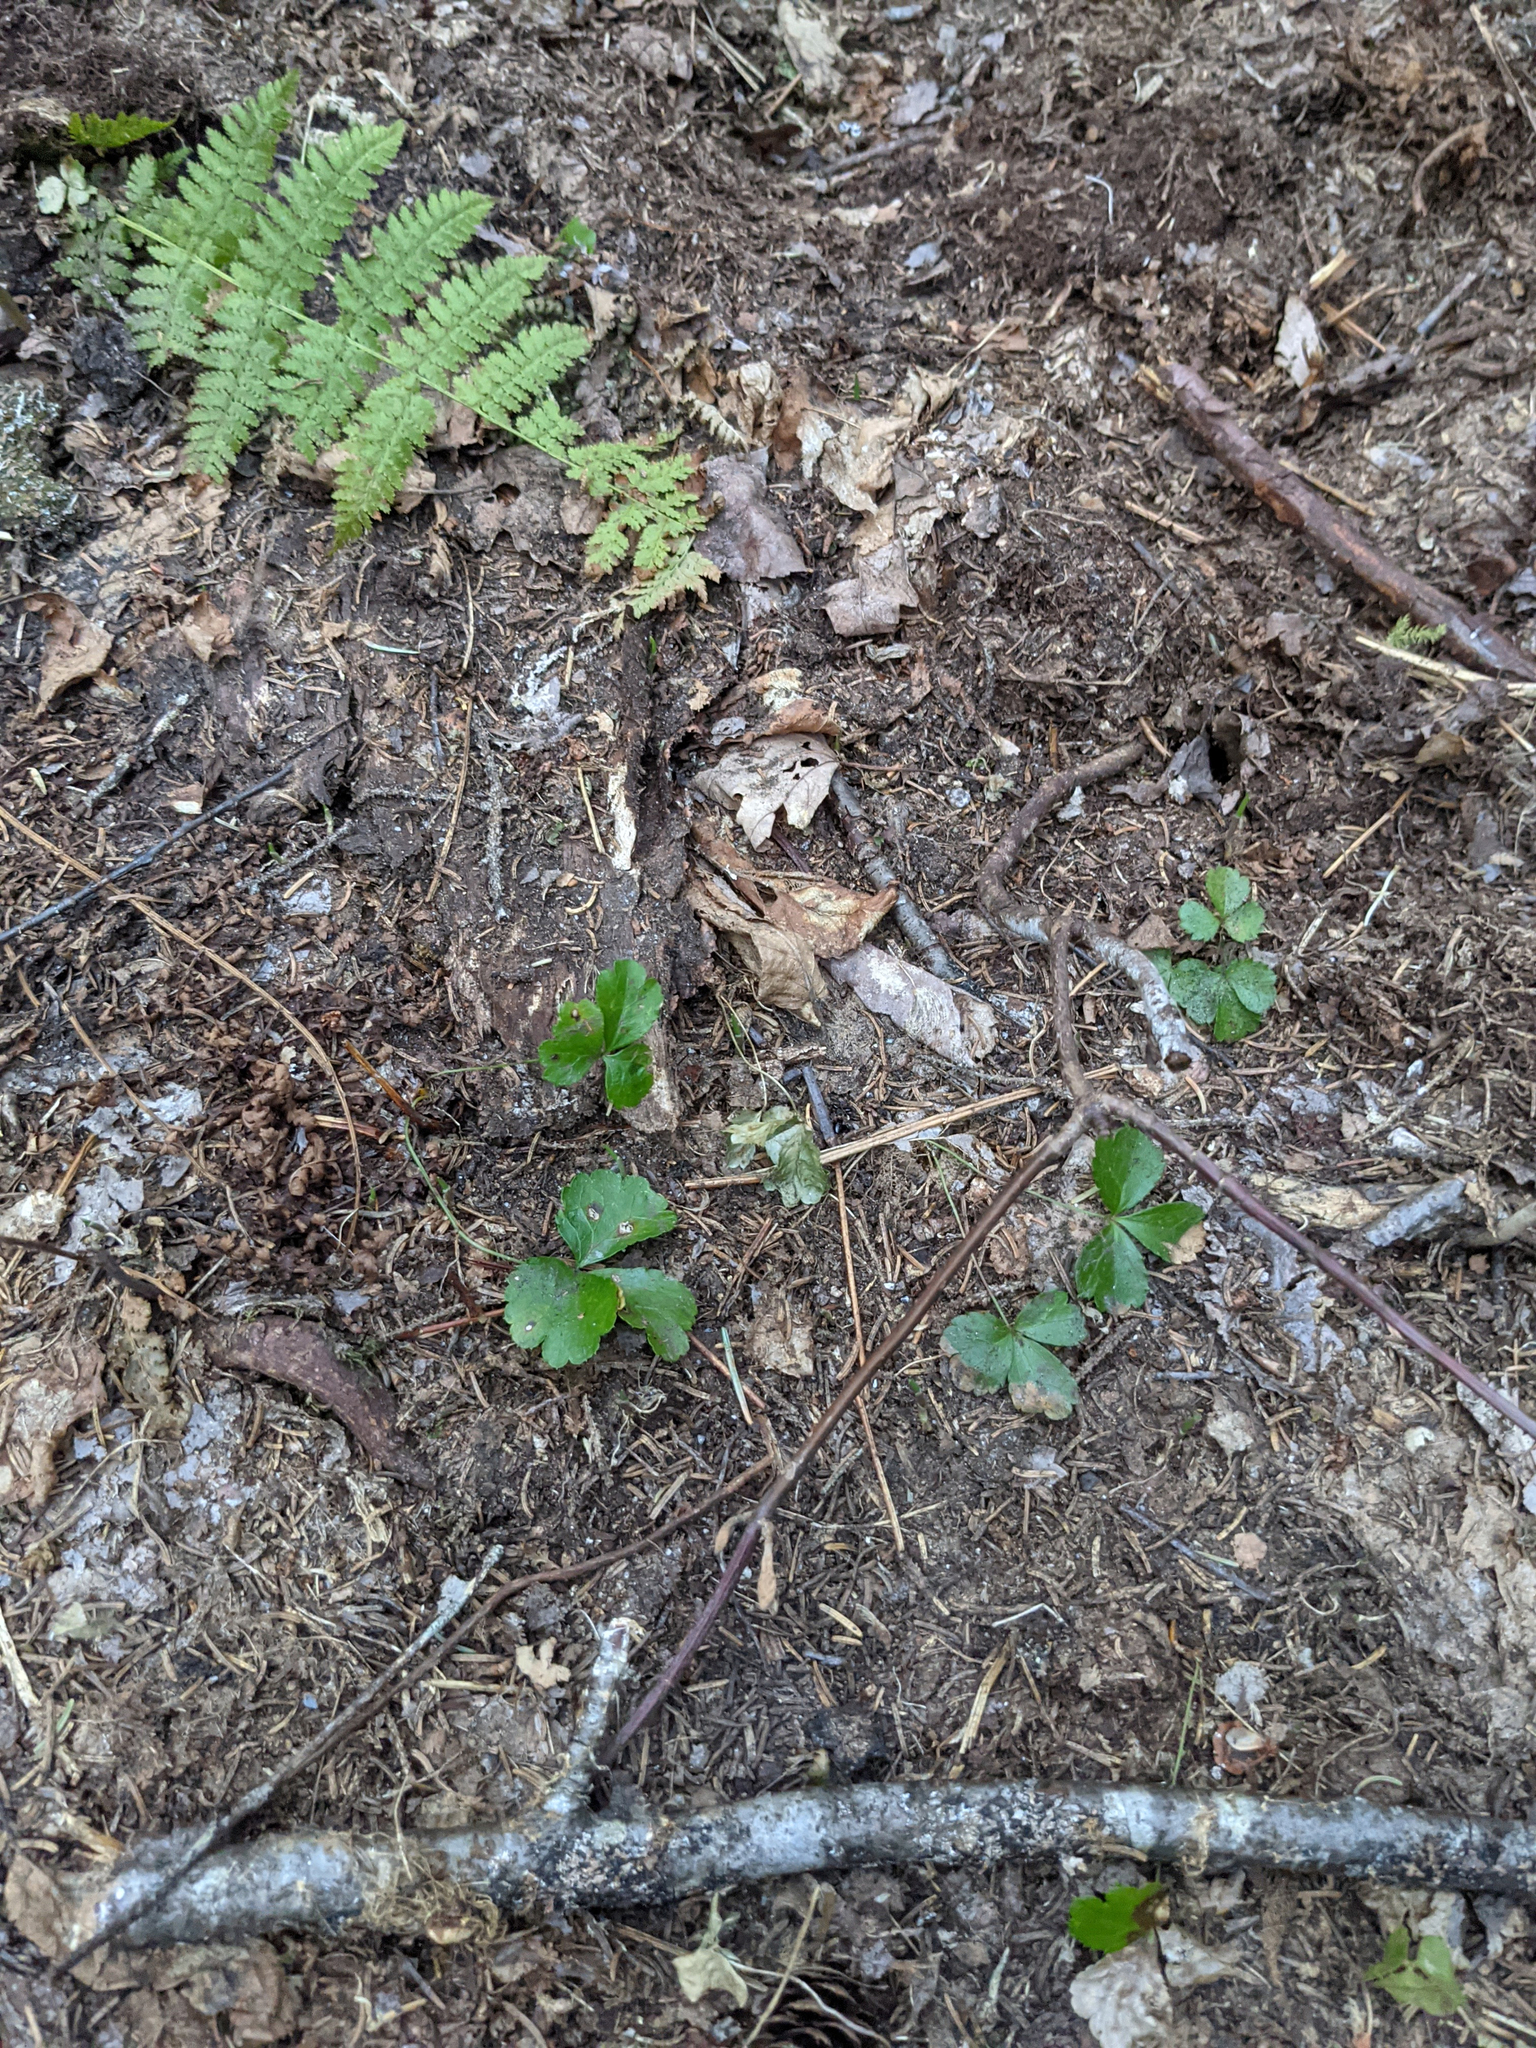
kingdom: Plantae
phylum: Tracheophyta
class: Magnoliopsida
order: Ranunculales
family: Ranunculaceae
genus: Coptis
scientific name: Coptis trifolia
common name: Canker-root
